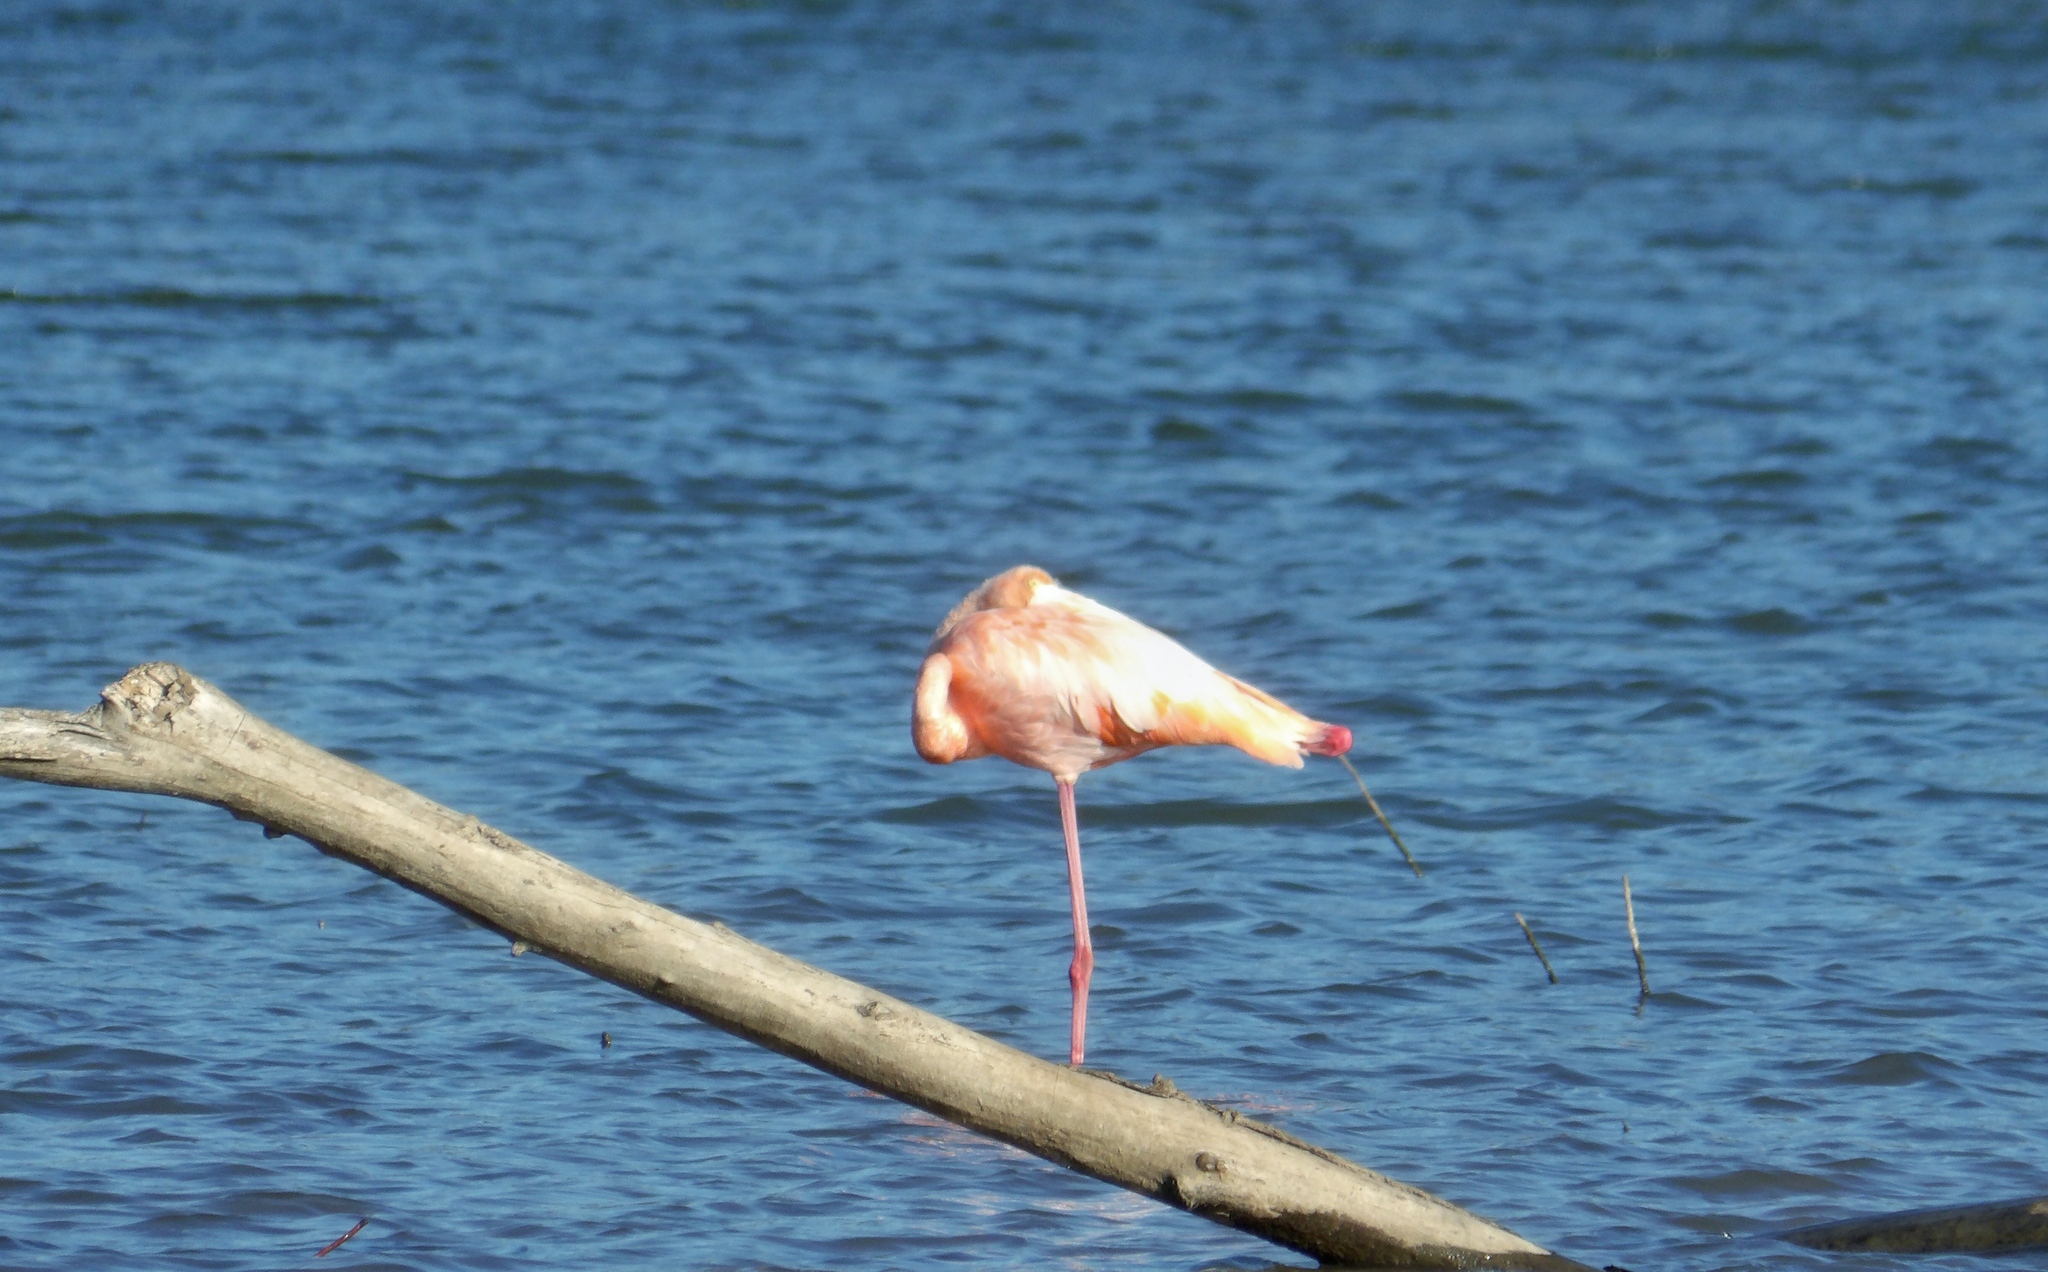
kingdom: Animalia
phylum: Chordata
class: Aves
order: Phoenicopteriformes
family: Phoenicopteridae
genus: Phoenicopterus
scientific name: Phoenicopterus ruber
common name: American flamingo
